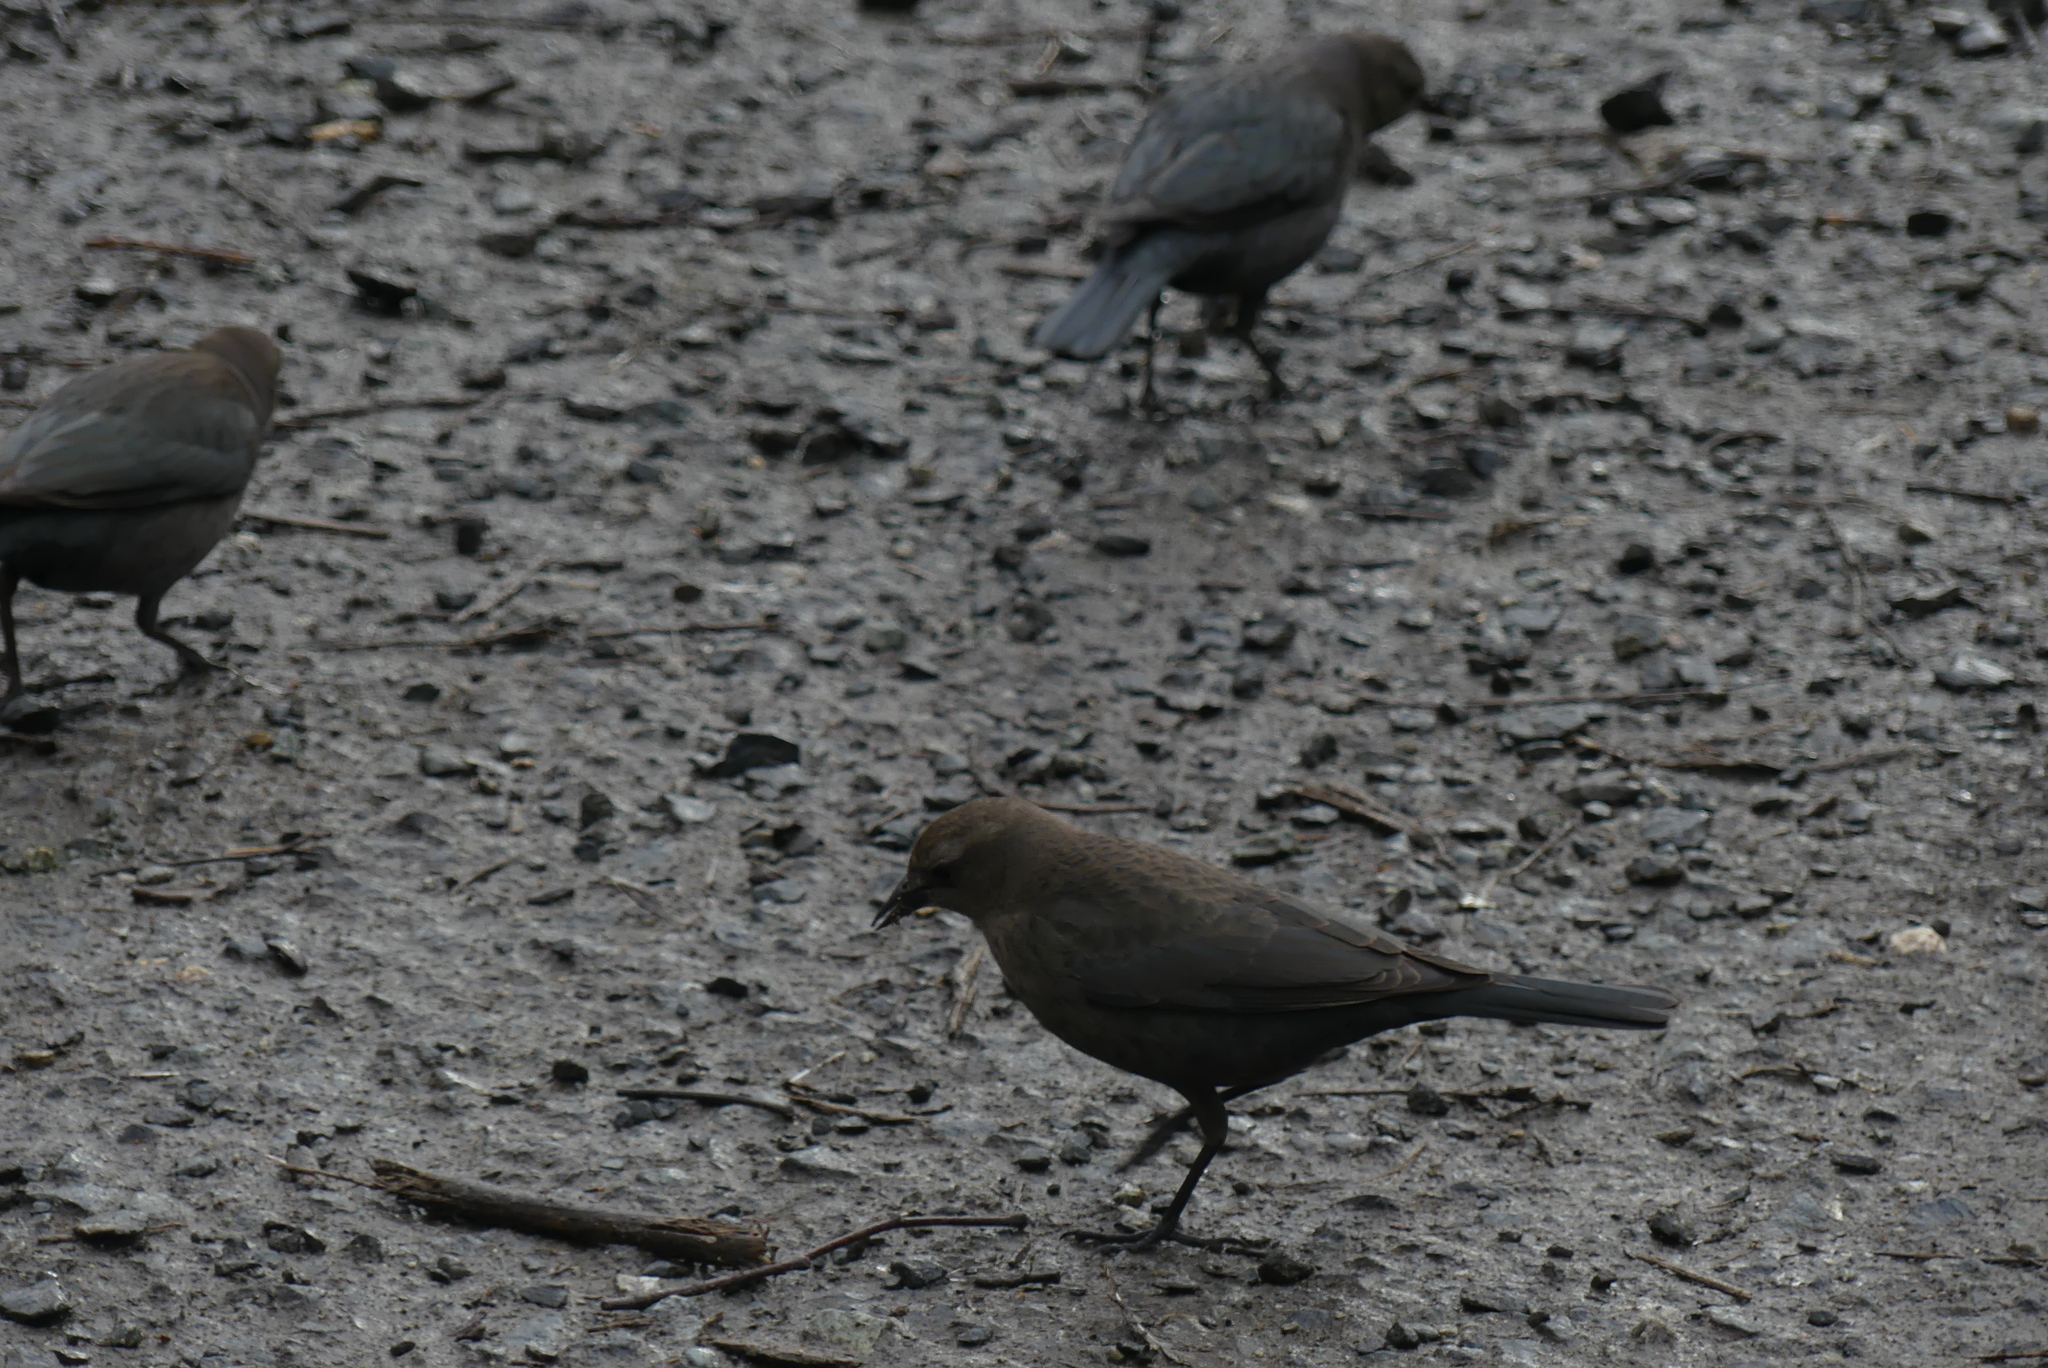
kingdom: Animalia
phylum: Chordata
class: Aves
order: Passeriformes
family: Icteridae
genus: Euphagus
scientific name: Euphagus cyanocephalus
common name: Brewer's blackbird
